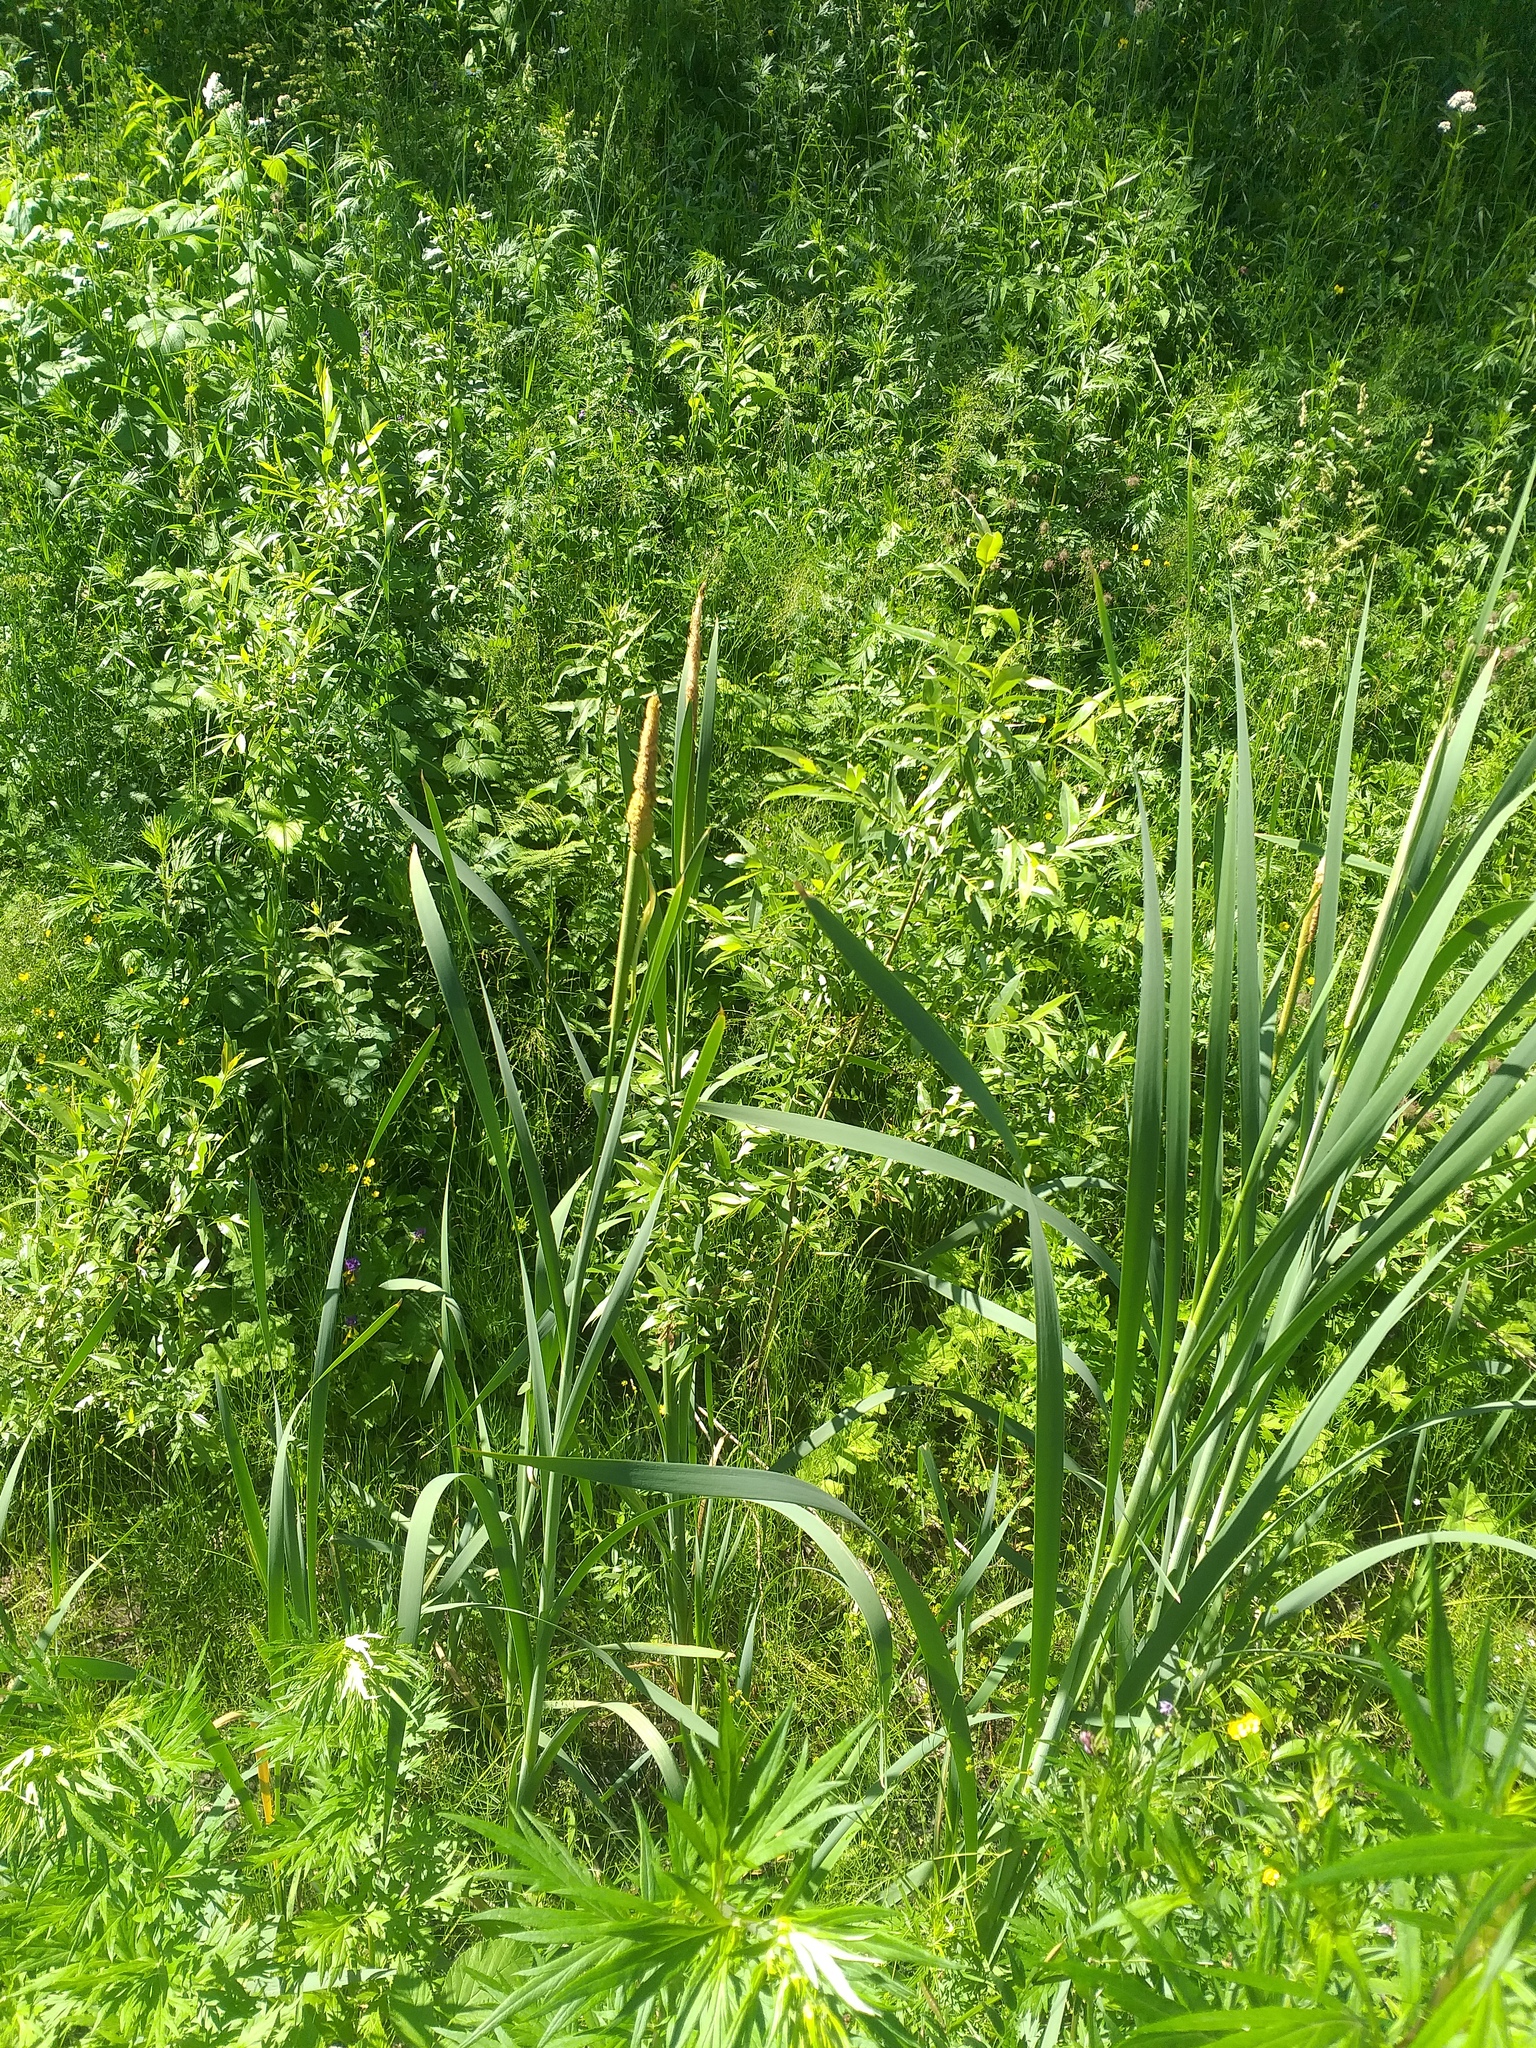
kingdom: Plantae
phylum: Tracheophyta
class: Liliopsida
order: Poales
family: Typhaceae
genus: Typha
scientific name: Typha latifolia
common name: Broadleaf cattail
